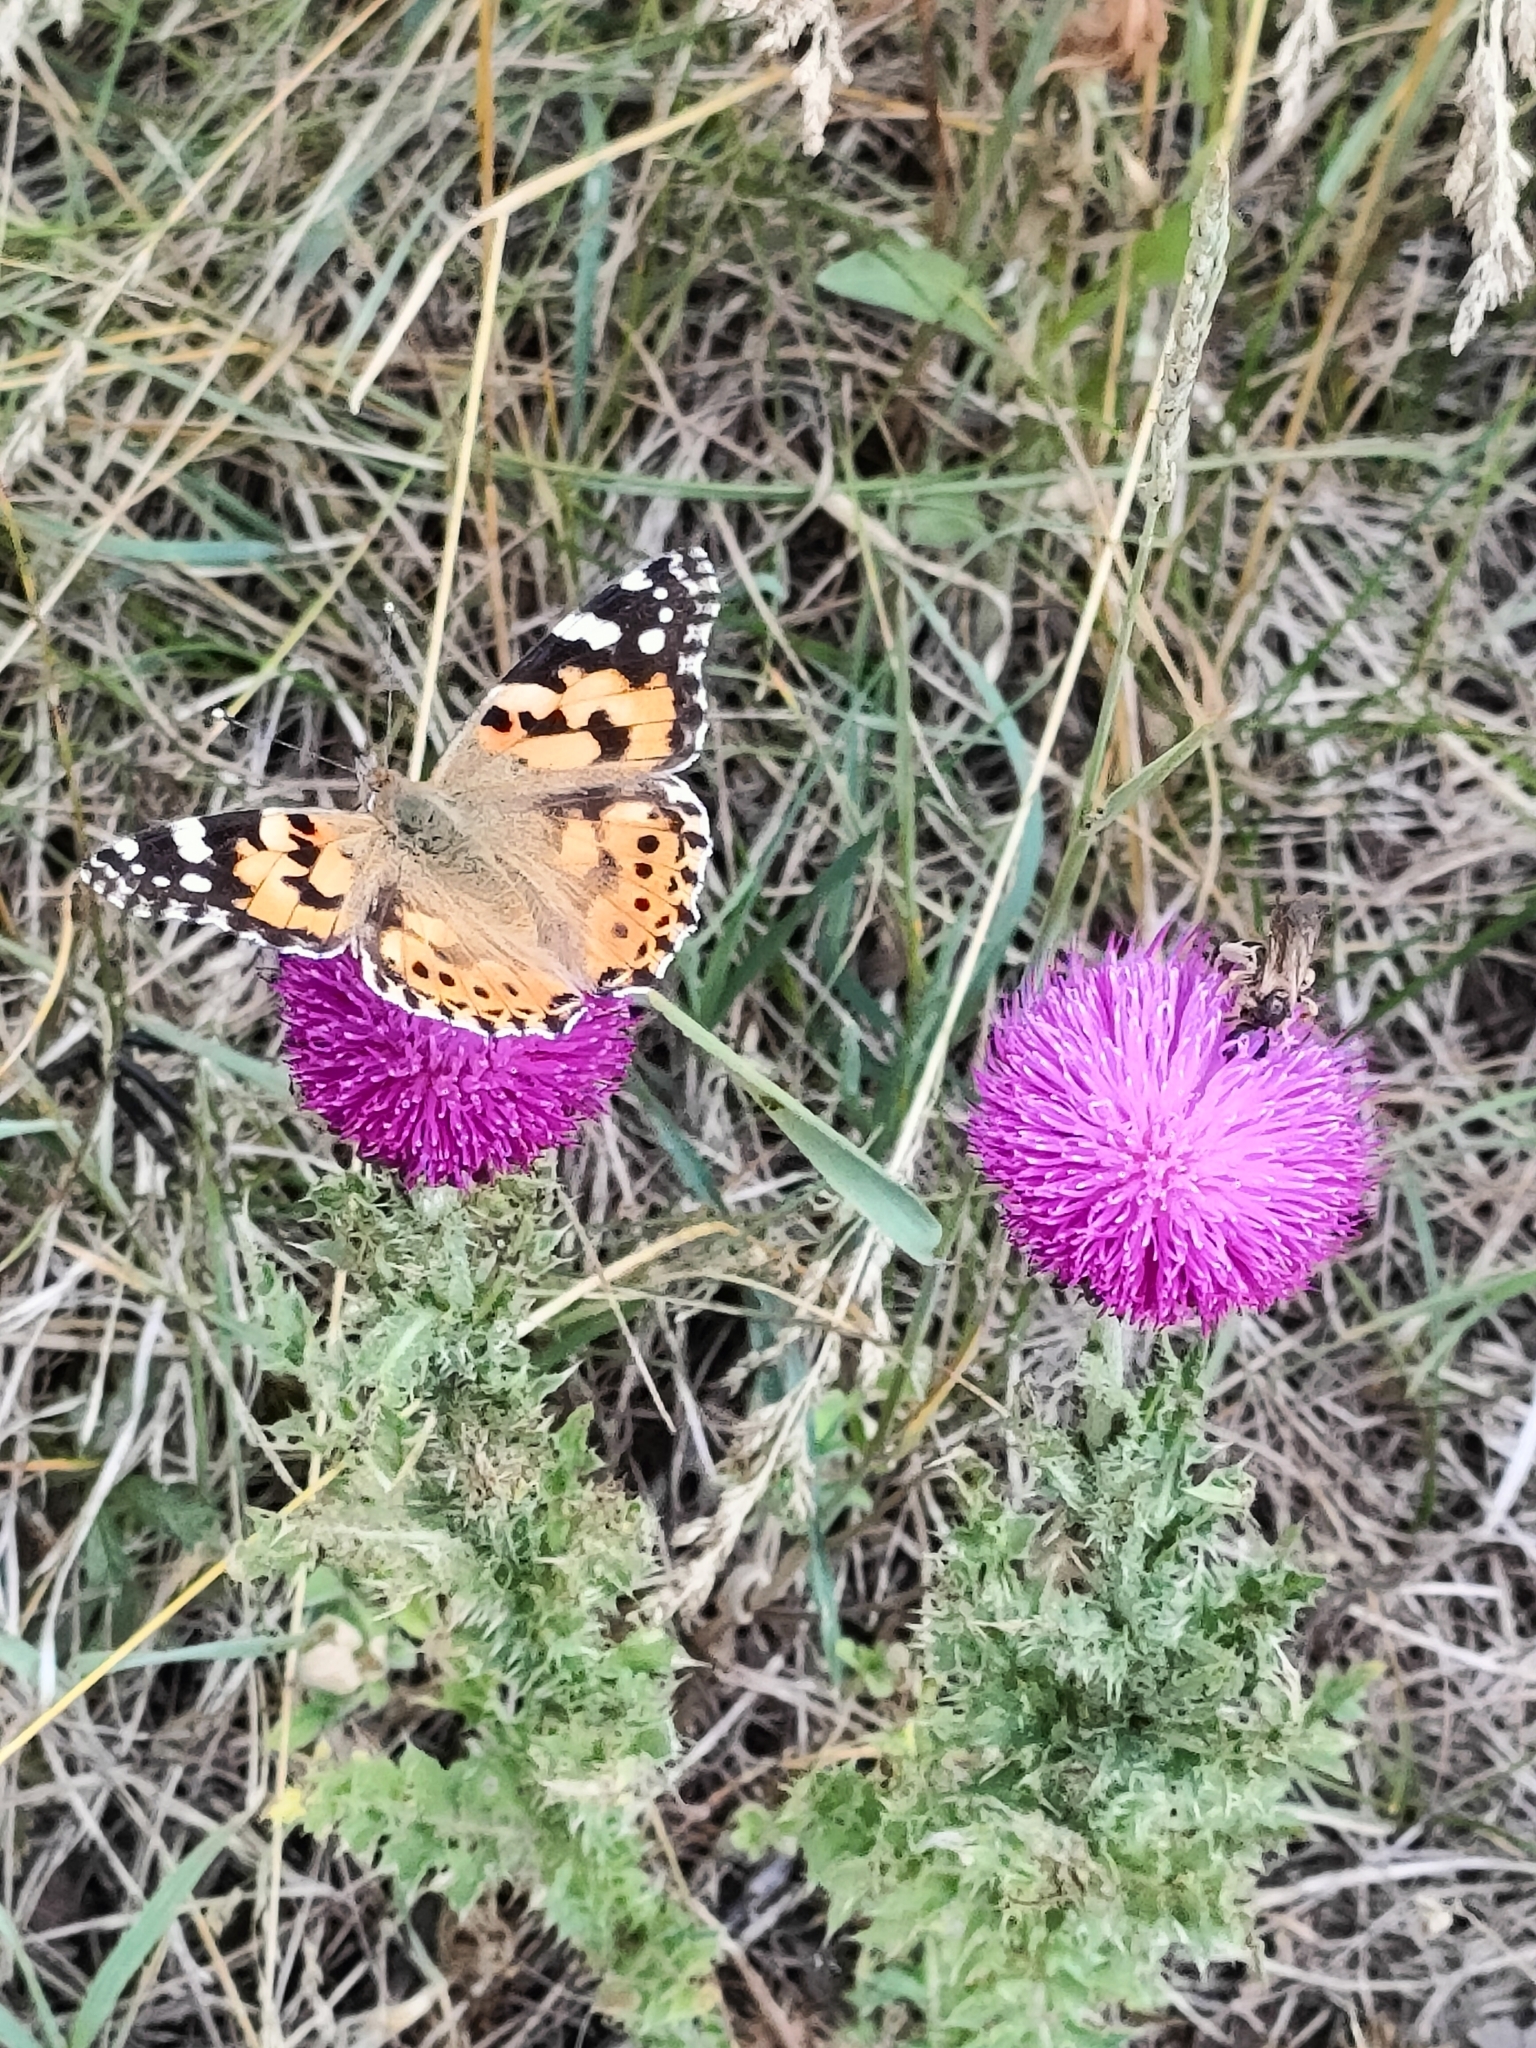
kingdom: Animalia
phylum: Arthropoda
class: Insecta
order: Lepidoptera
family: Nymphalidae
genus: Vanessa
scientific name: Vanessa cardui
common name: Painted lady
